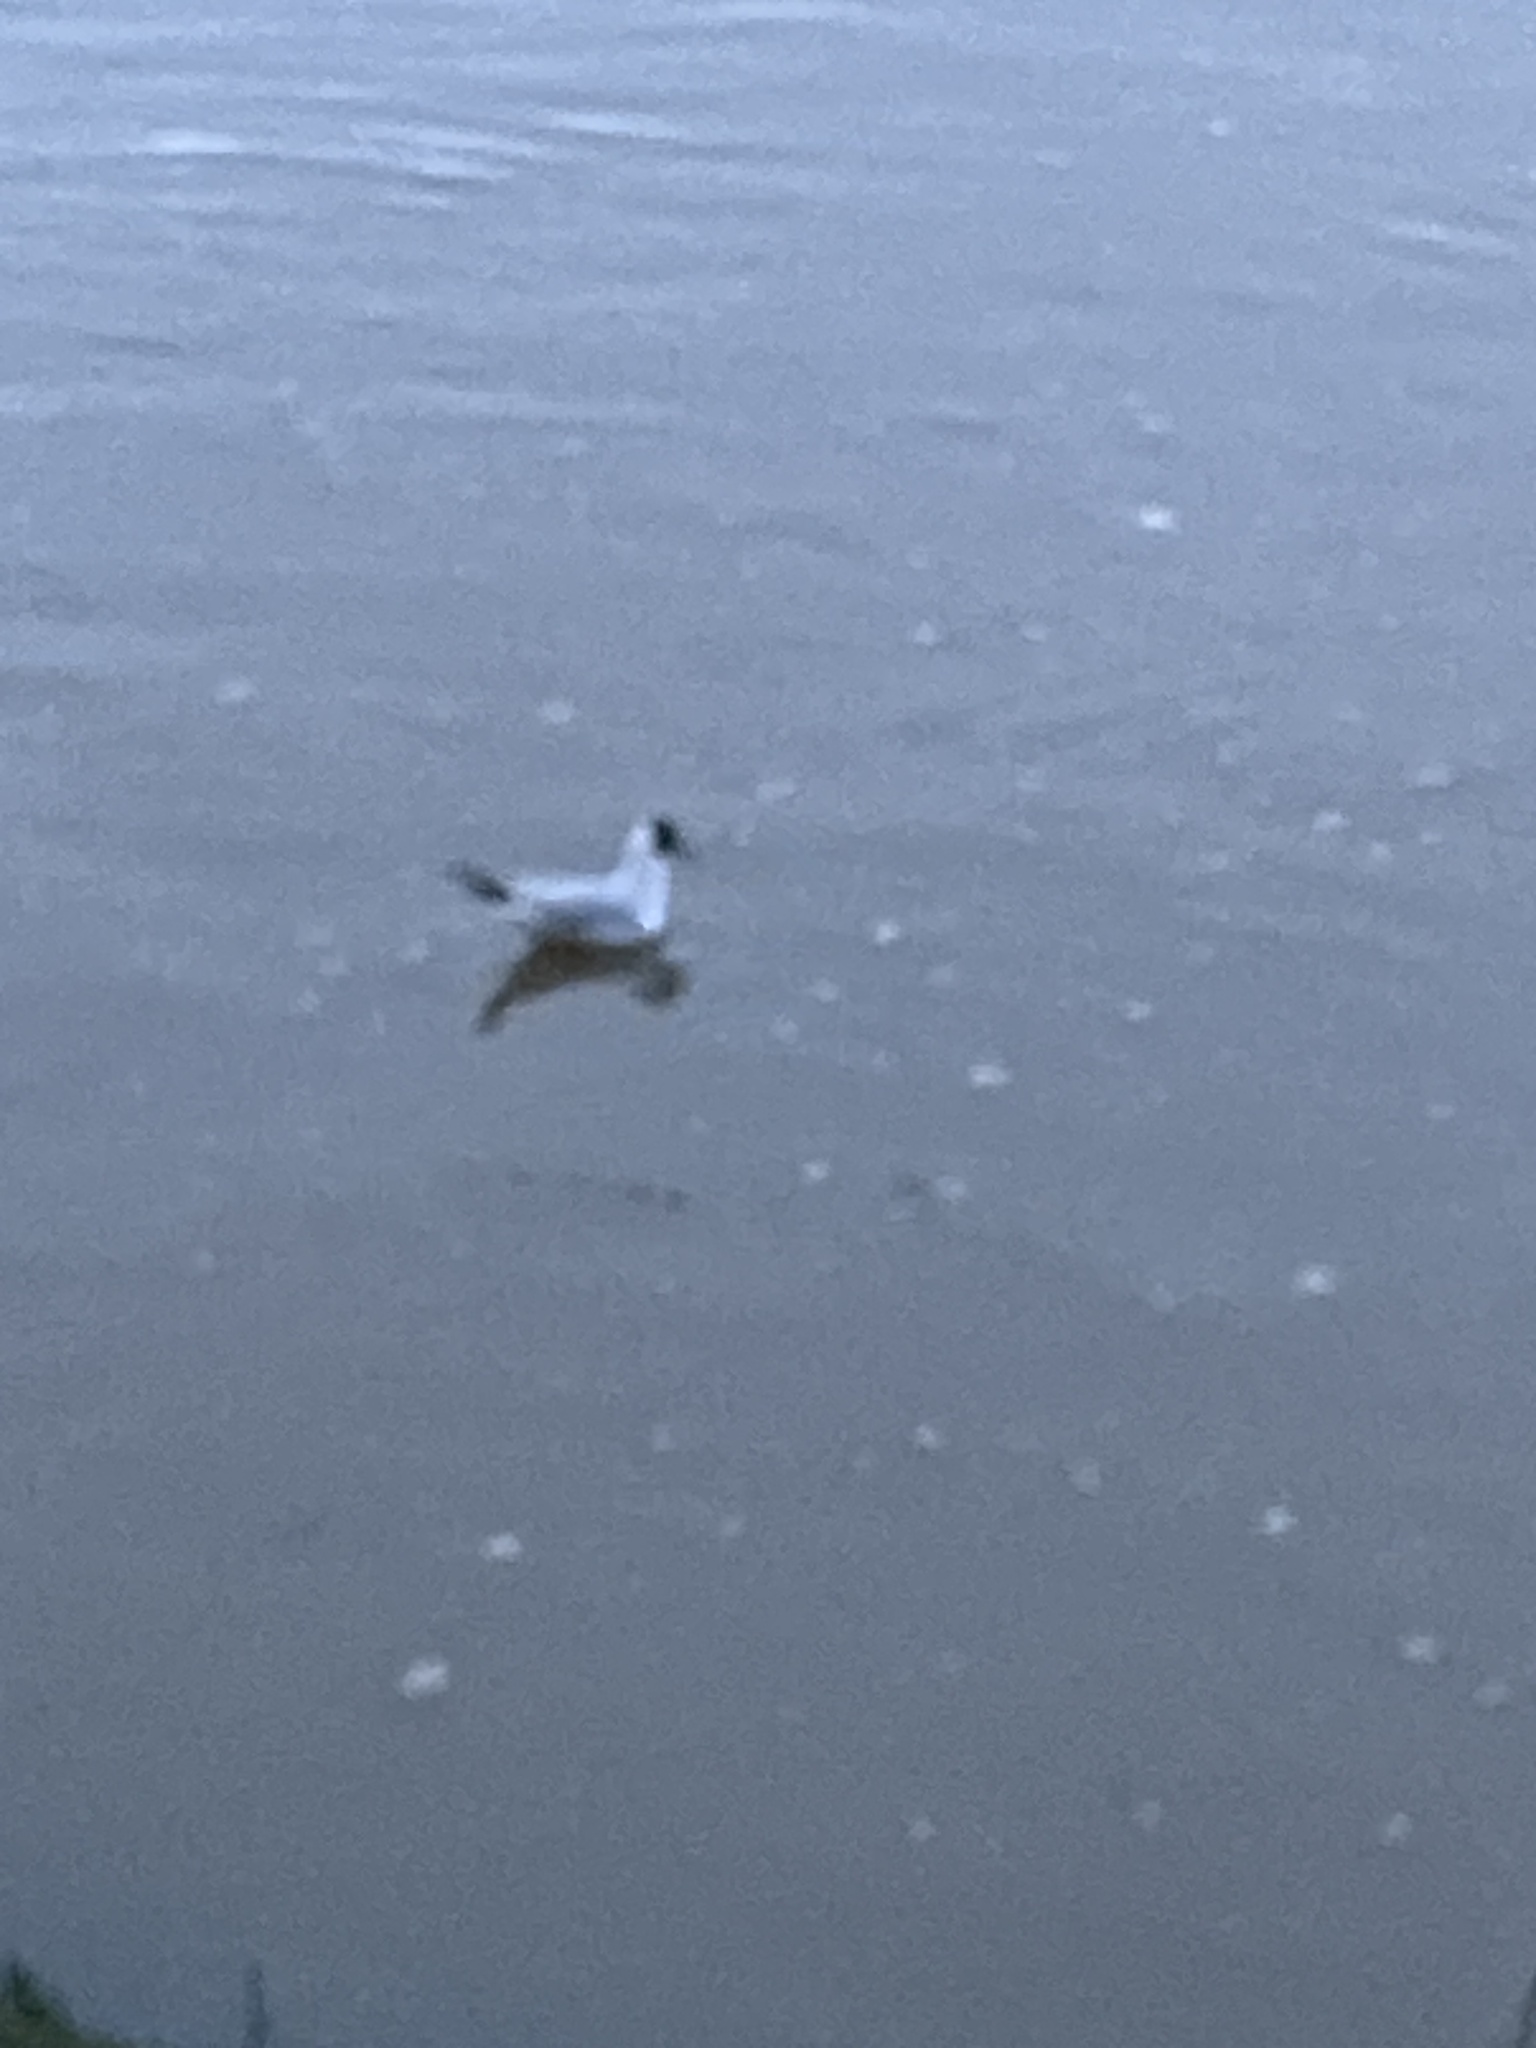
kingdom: Animalia
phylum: Chordata
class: Aves
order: Charadriiformes
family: Laridae
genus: Chroicocephalus
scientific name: Chroicocephalus ridibundus
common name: Black-headed gull
